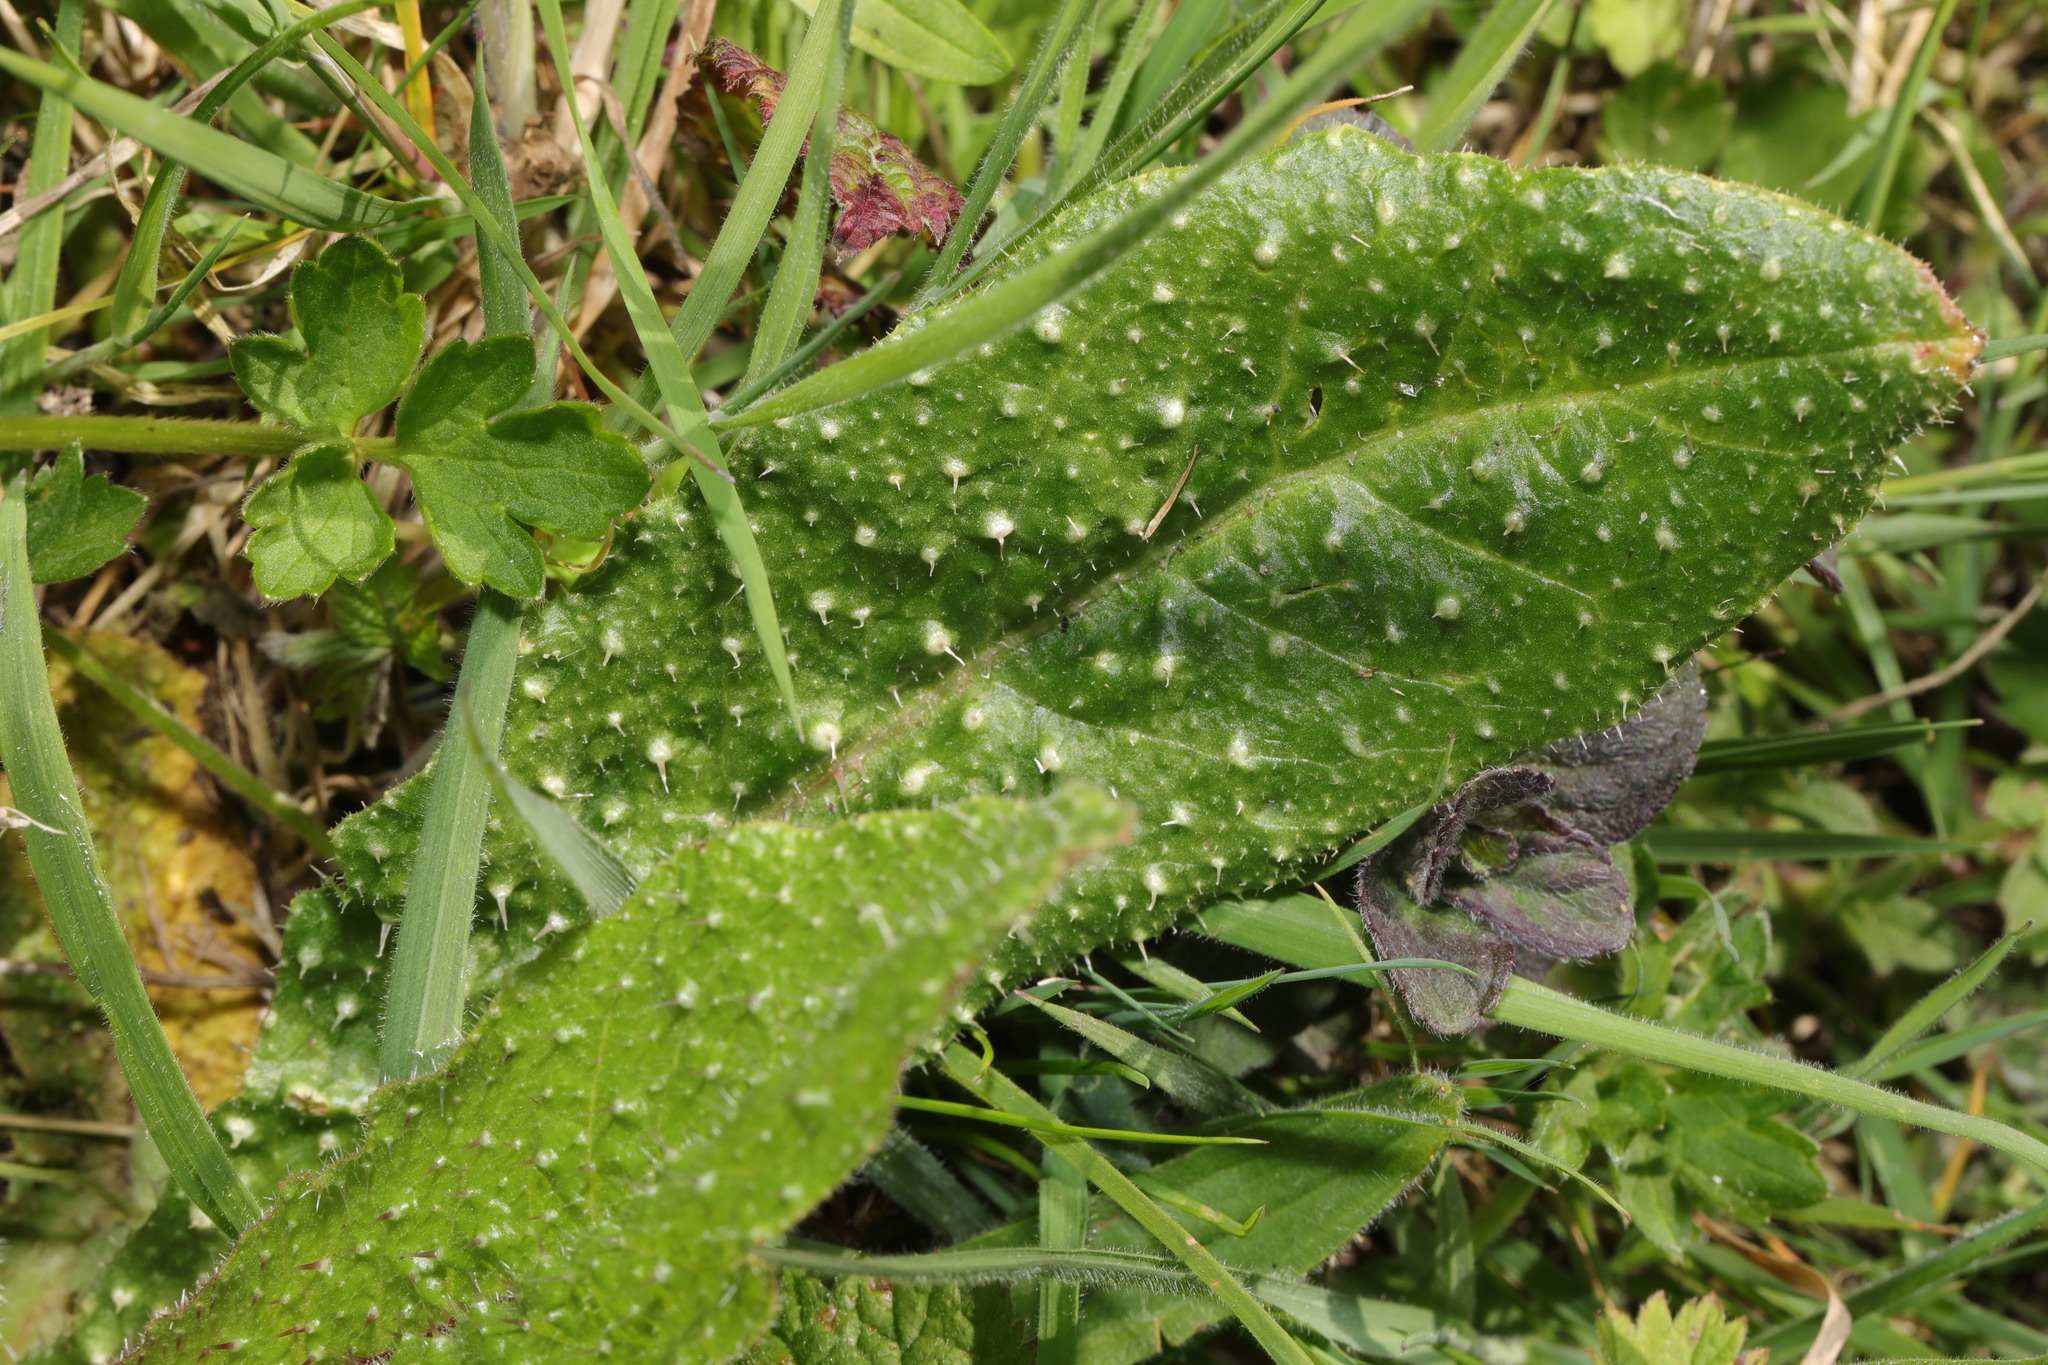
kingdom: Plantae
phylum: Tracheophyta
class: Magnoliopsida
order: Asterales
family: Asteraceae
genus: Helminthotheca
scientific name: Helminthotheca echioides
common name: Ox-tongue
